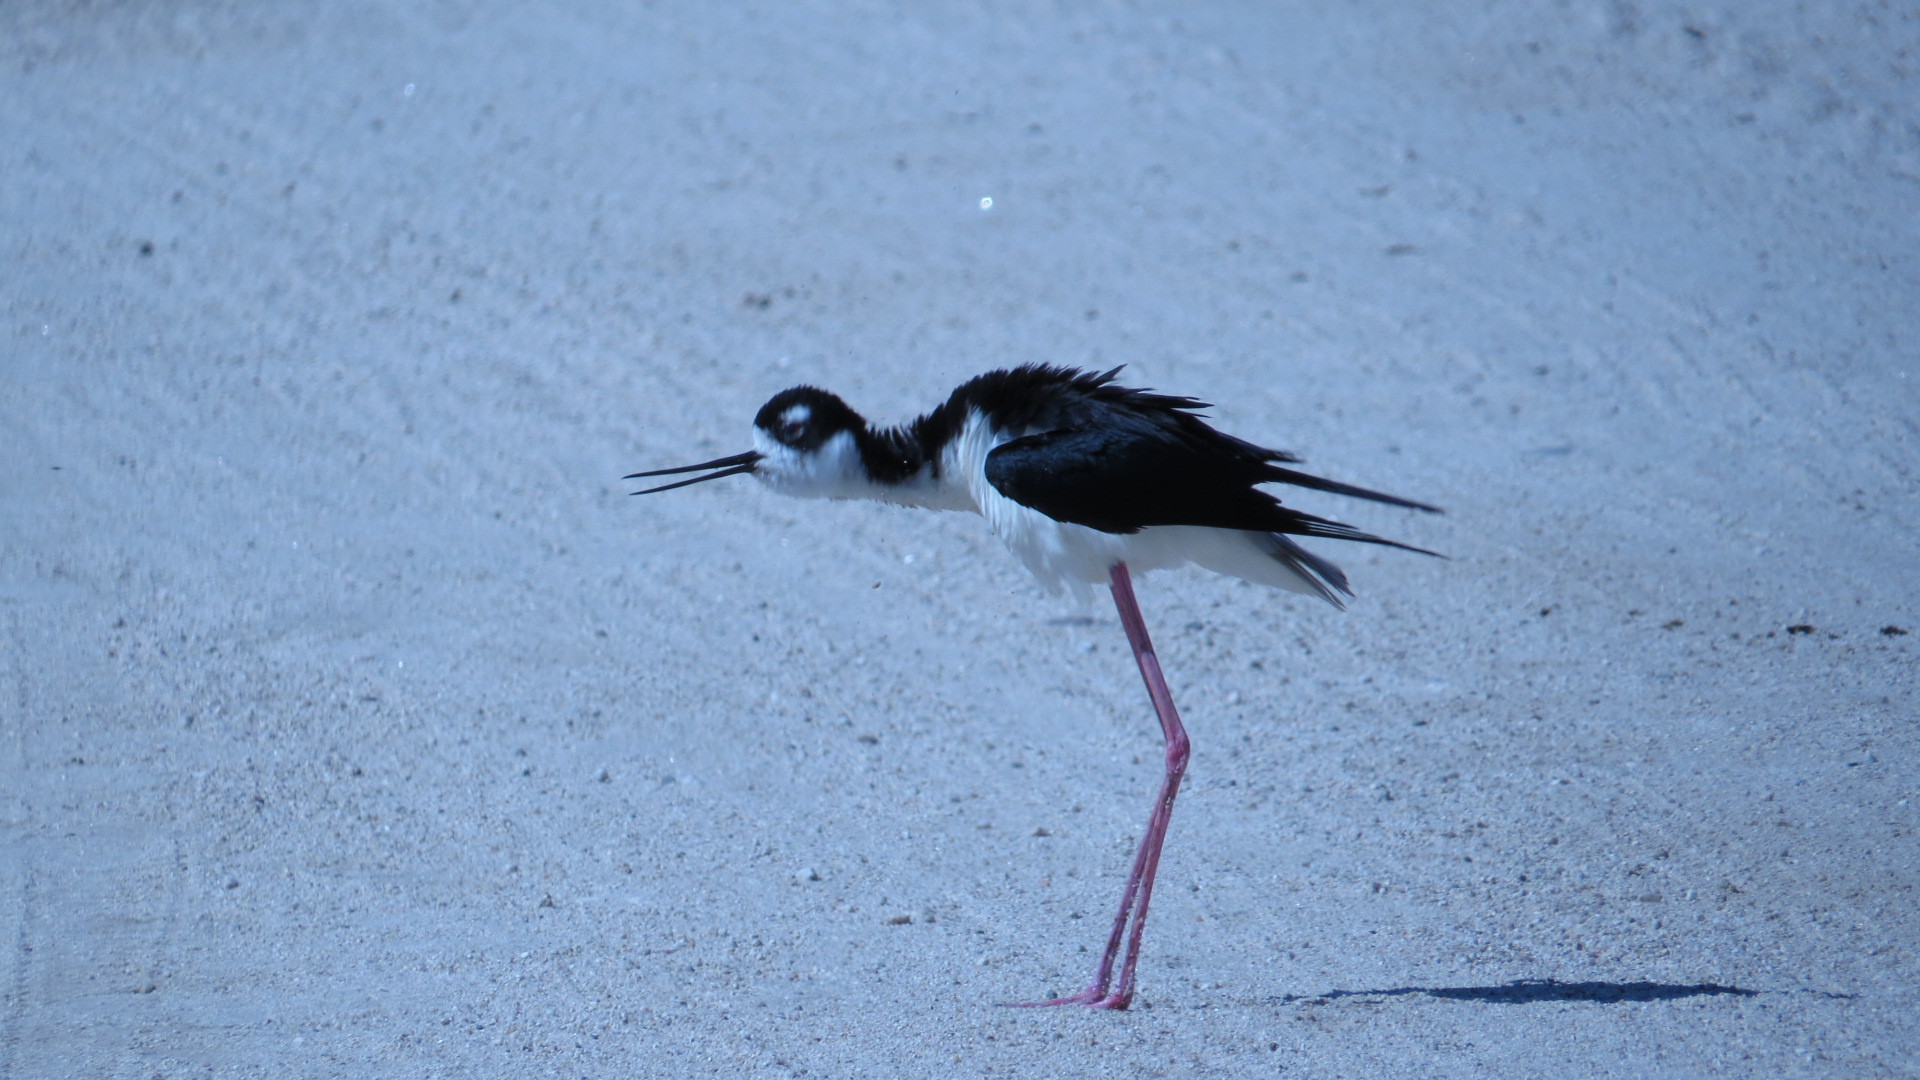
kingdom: Animalia
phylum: Chordata
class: Aves
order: Charadriiformes
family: Recurvirostridae
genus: Himantopus
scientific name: Himantopus mexicanus
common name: Black-necked stilt
